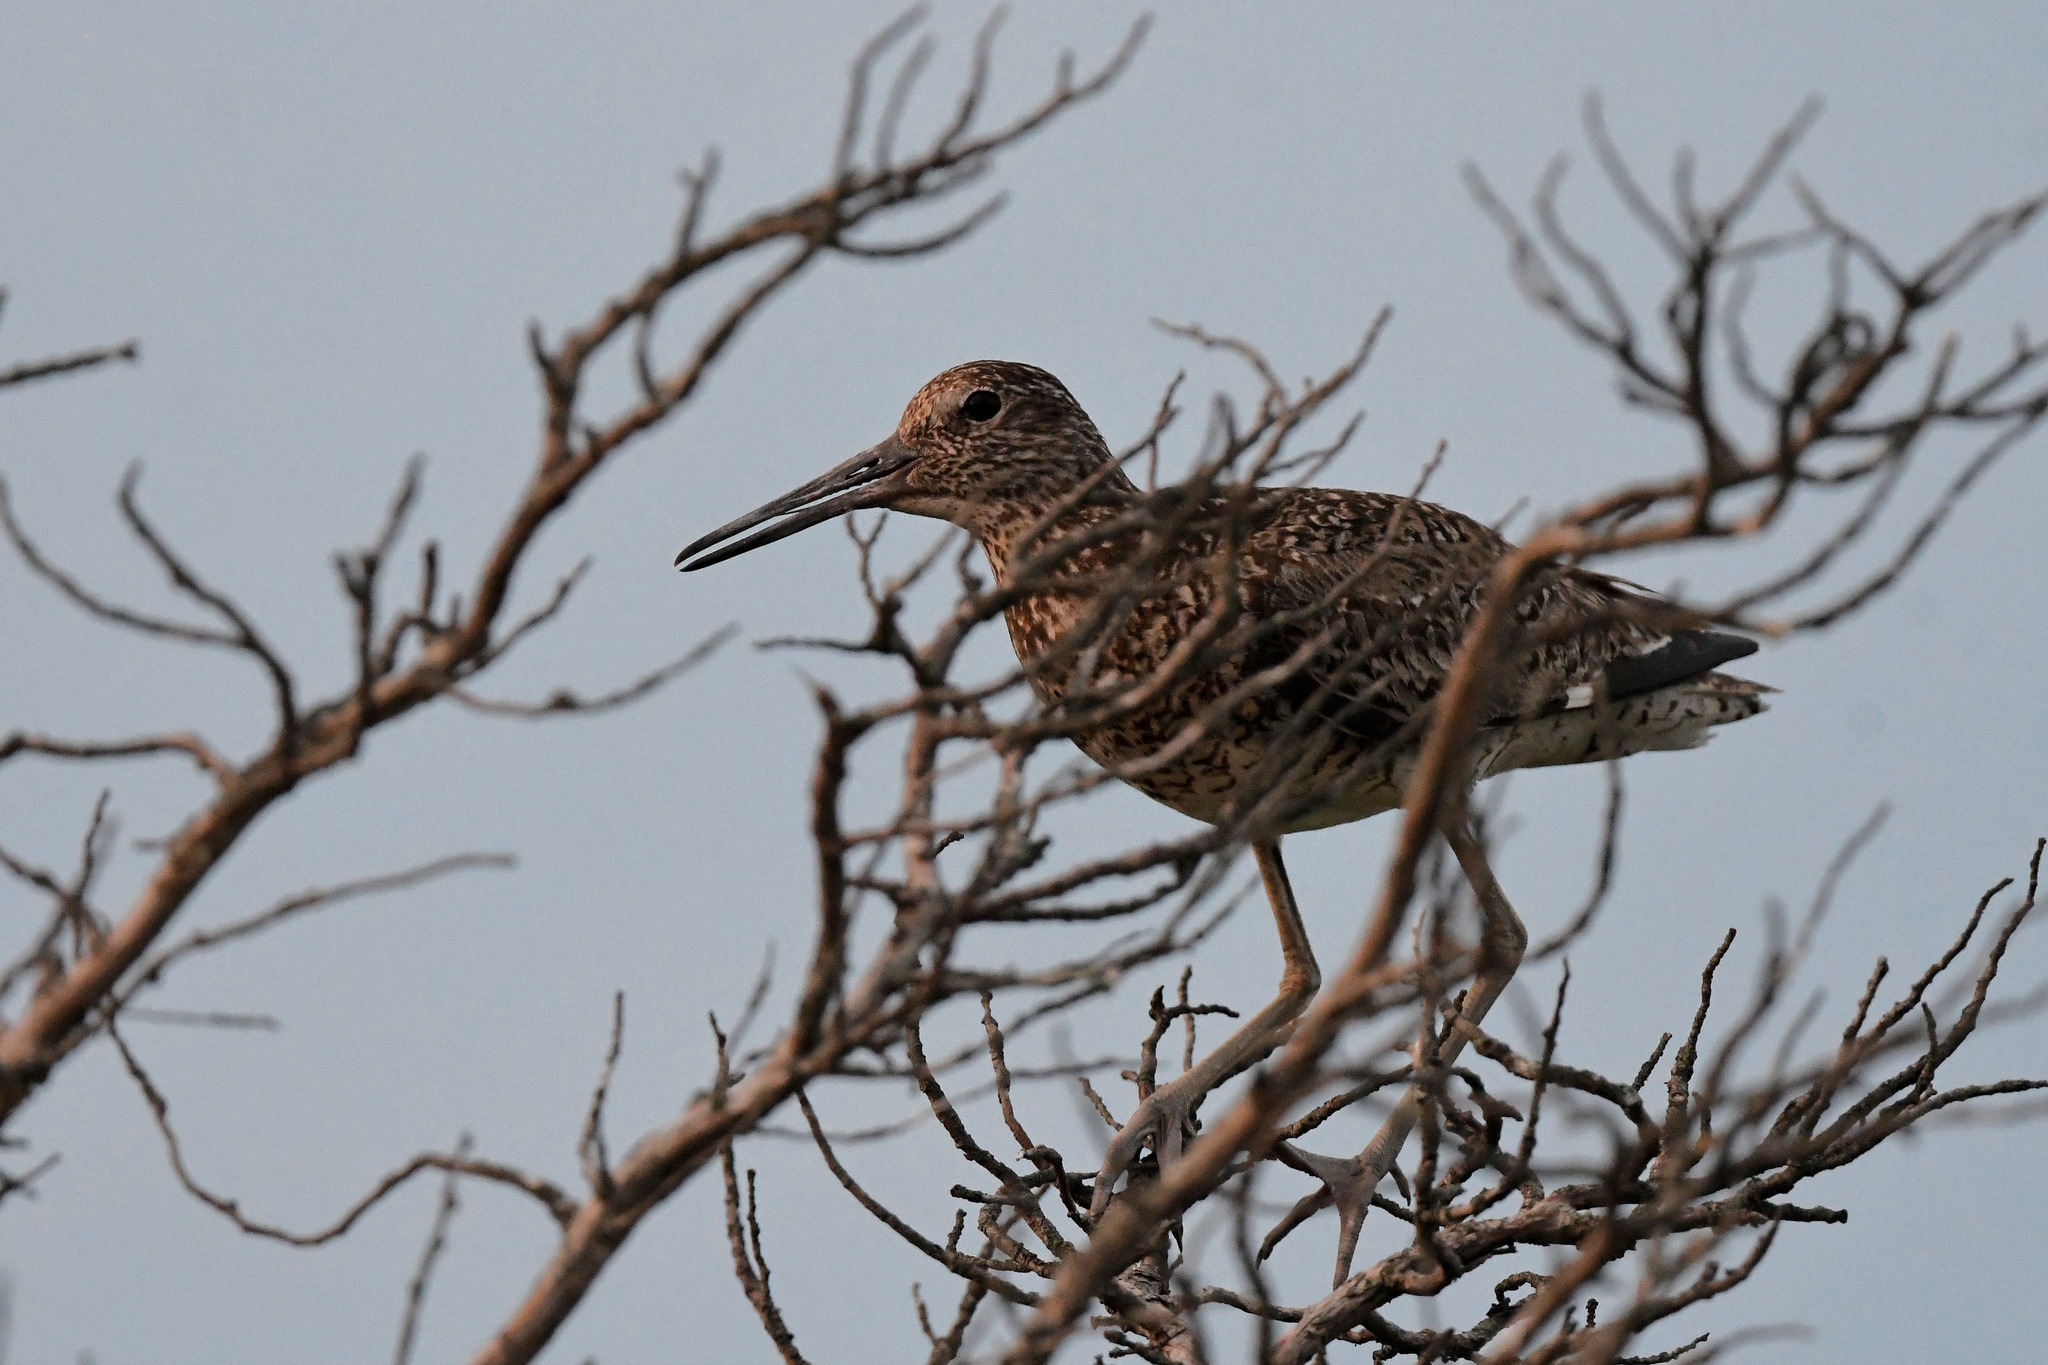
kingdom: Animalia
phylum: Chordata
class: Aves
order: Charadriiformes
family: Scolopacidae
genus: Tringa
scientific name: Tringa semipalmata
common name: Willet
